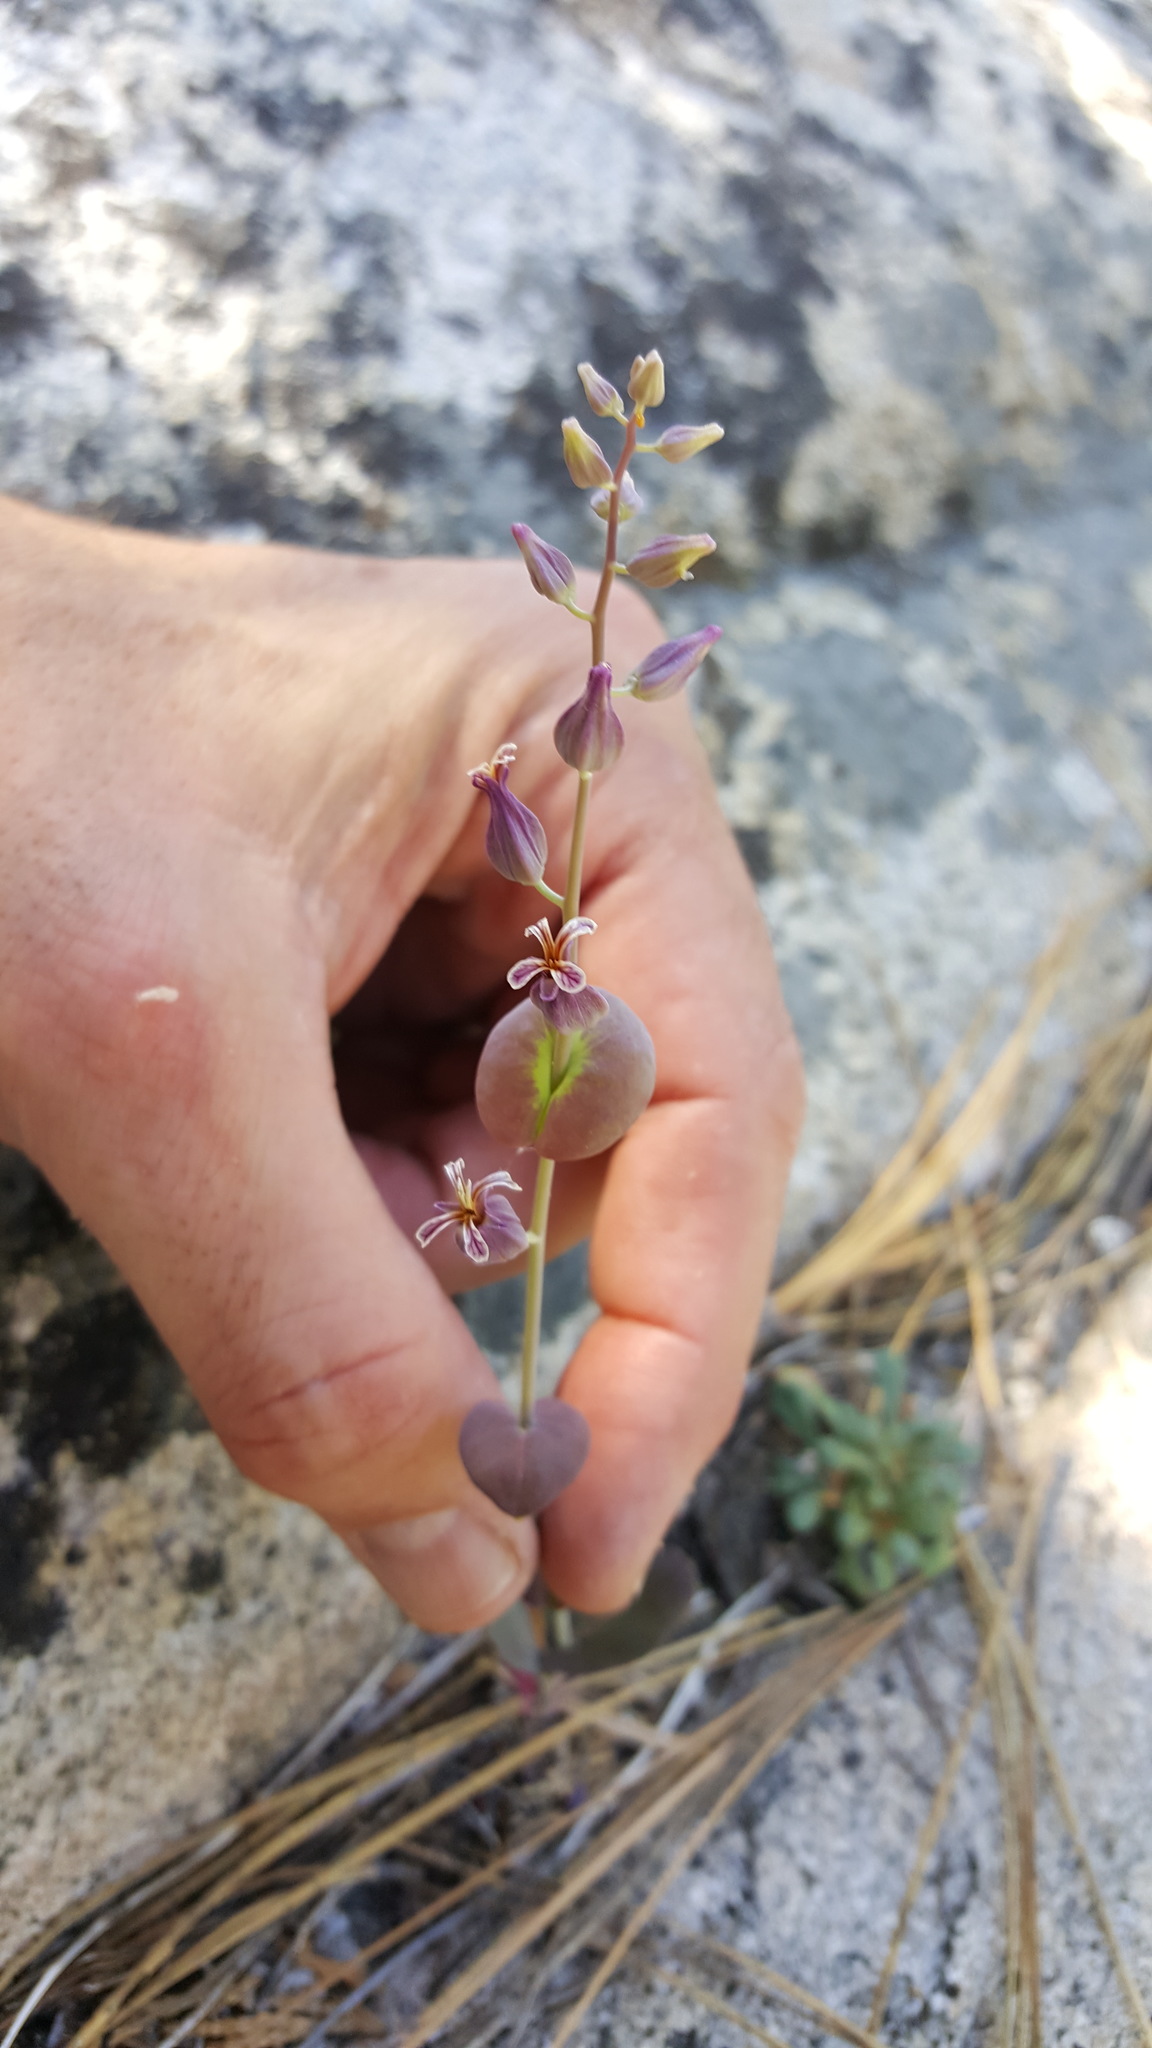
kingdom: Plantae
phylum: Tracheophyta
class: Magnoliopsida
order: Brassicales
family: Brassicaceae
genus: Streptanthus
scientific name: Streptanthus tortuosus
